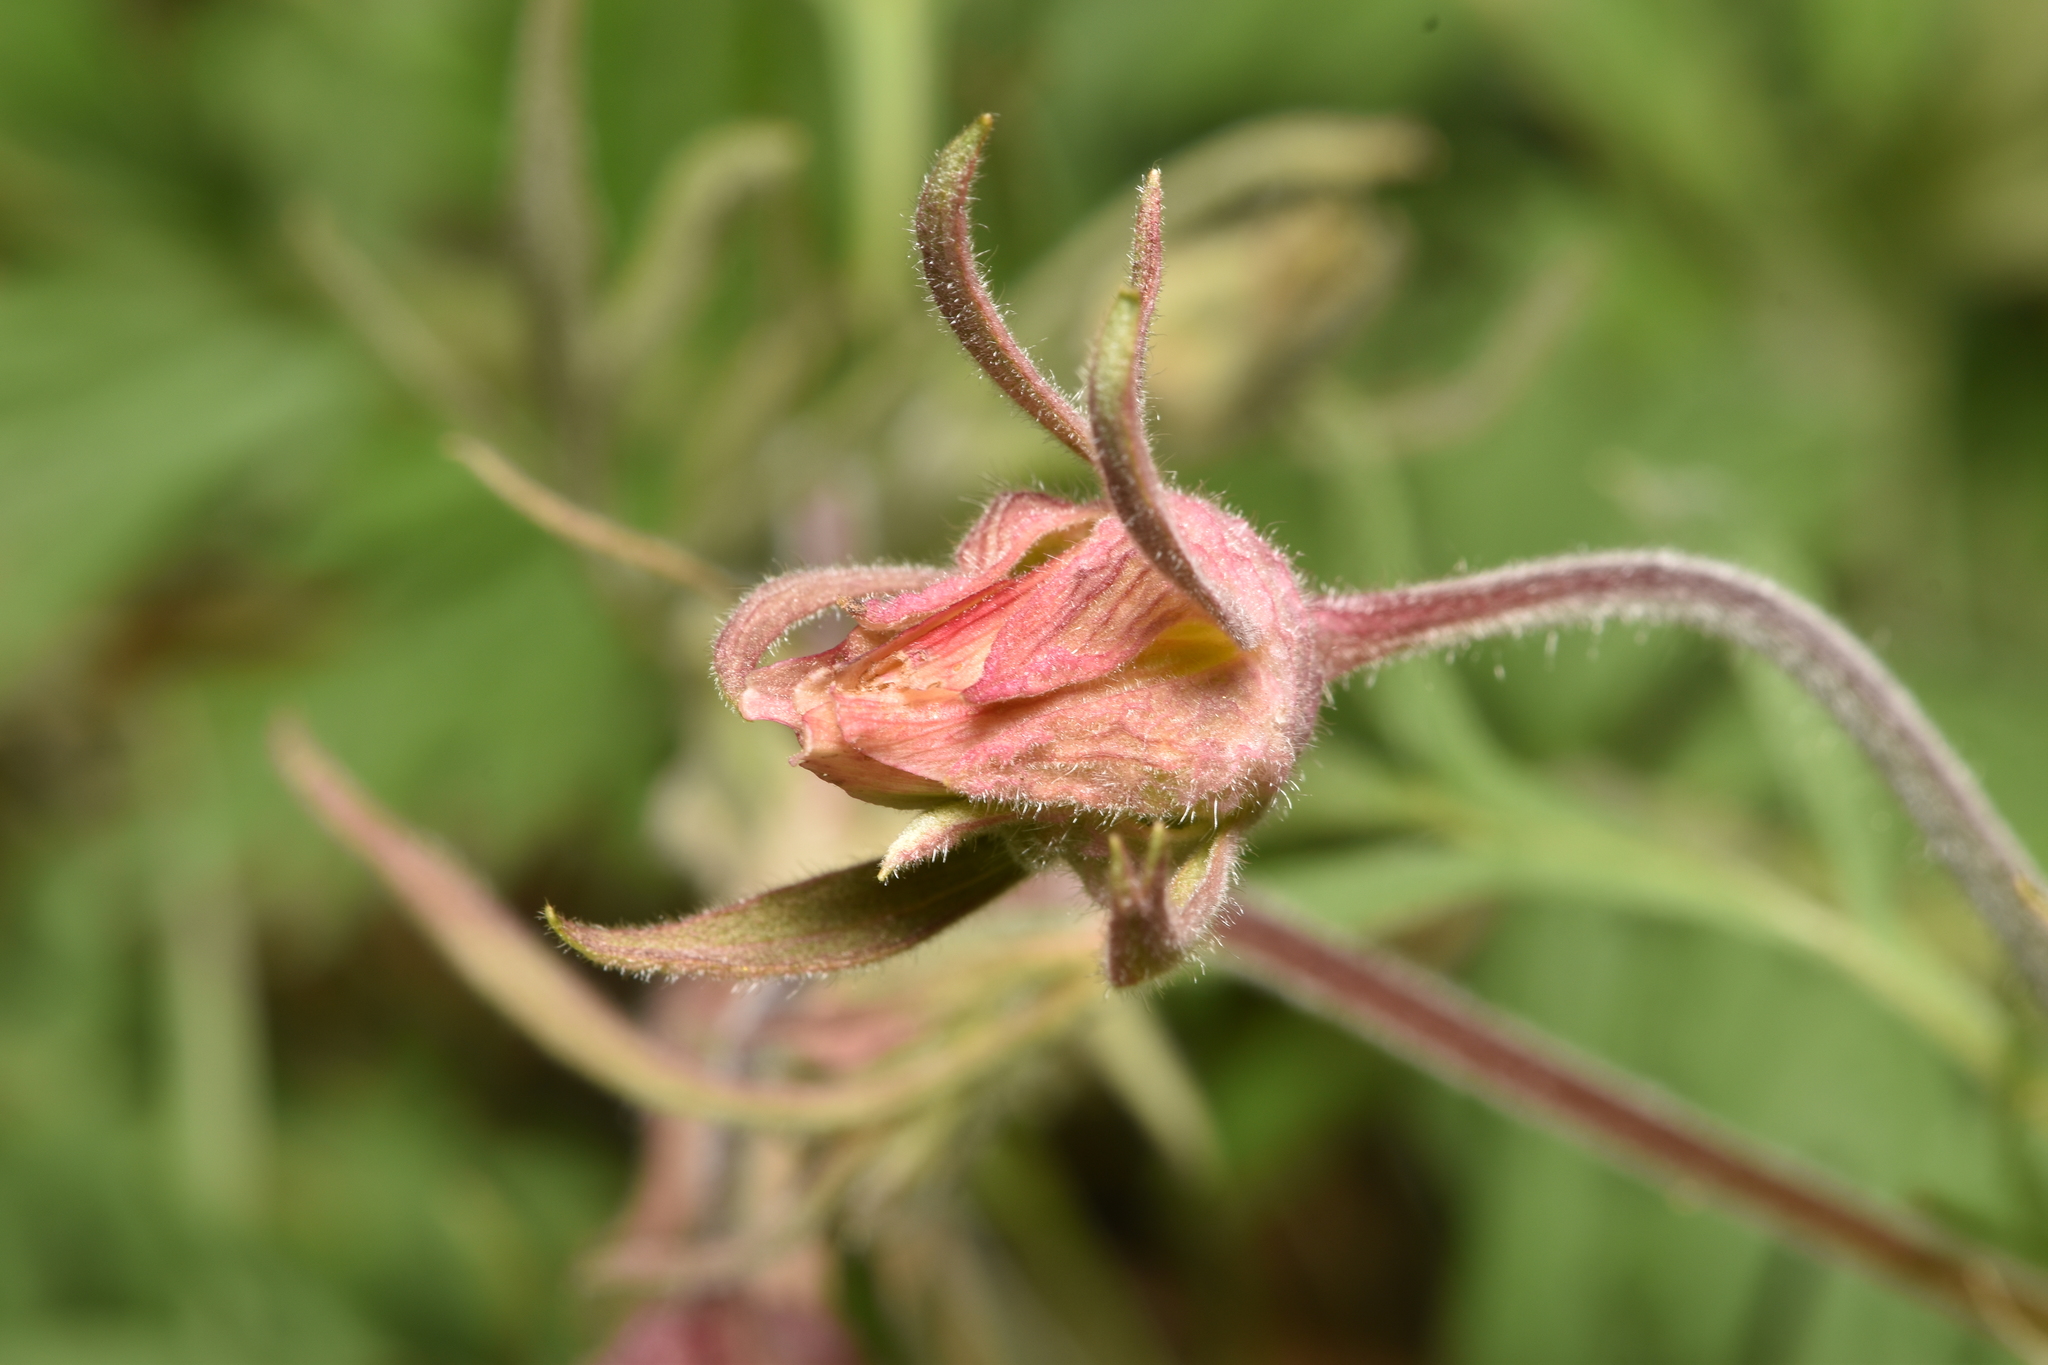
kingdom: Plantae
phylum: Tracheophyta
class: Magnoliopsida
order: Rosales
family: Rosaceae
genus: Geum
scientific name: Geum triflorum
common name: Old man's whiskers
